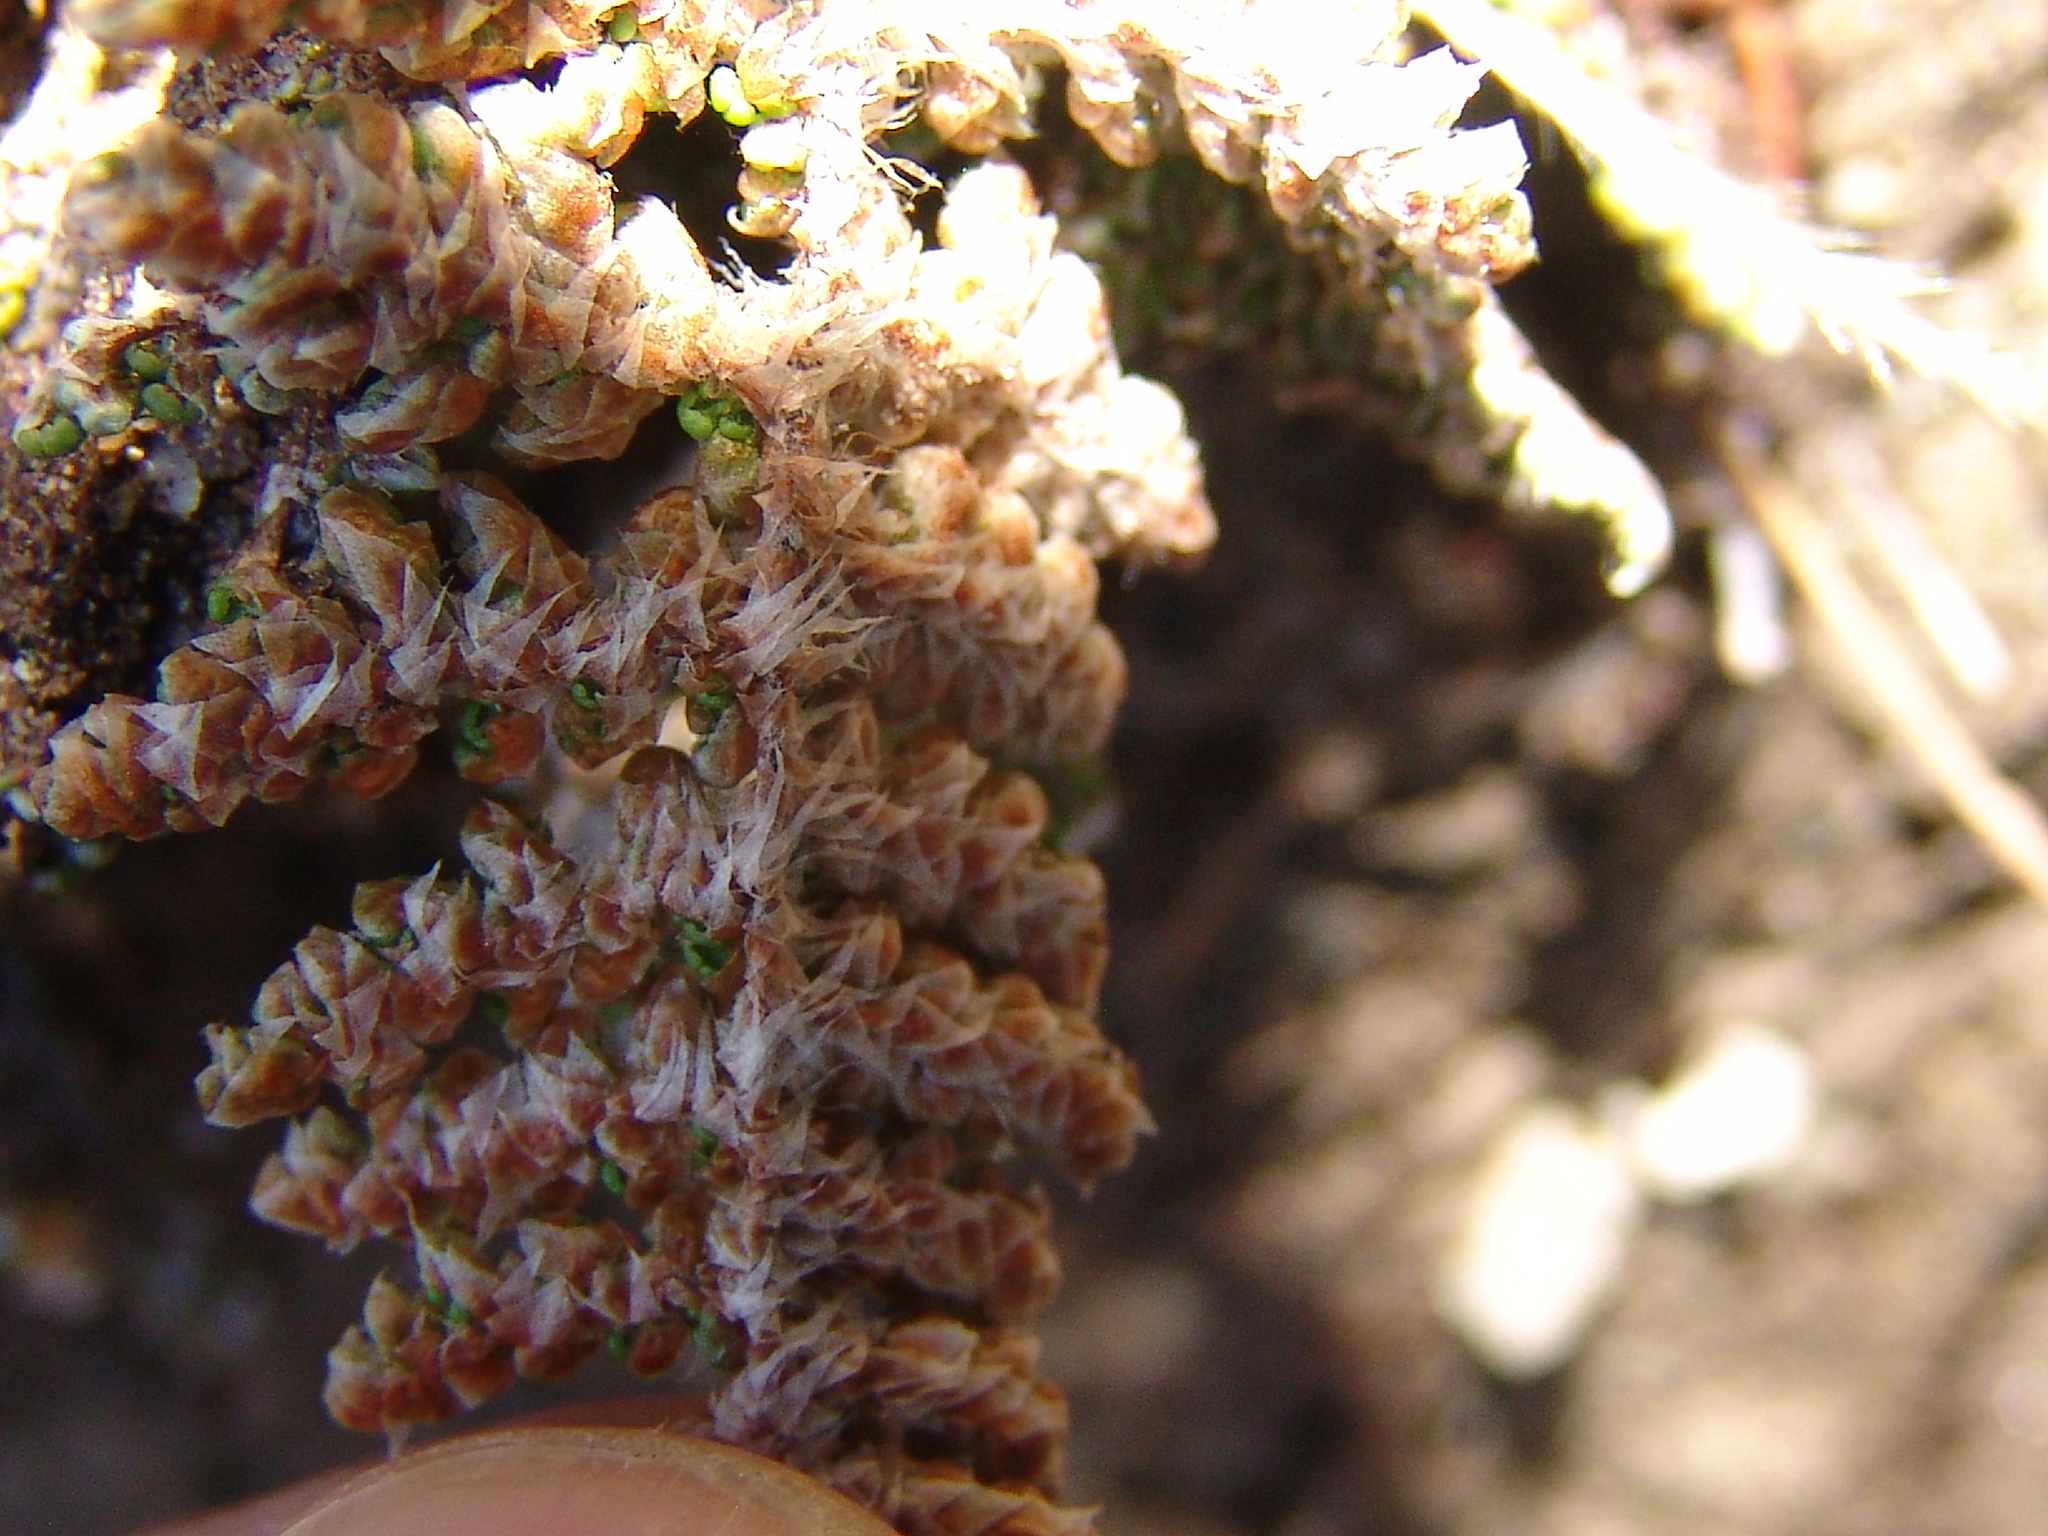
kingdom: Plantae
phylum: Tracheophyta
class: Polypodiopsida
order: Polypodiales
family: Pteridaceae
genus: Myriopteris
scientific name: Myriopteris covillei
